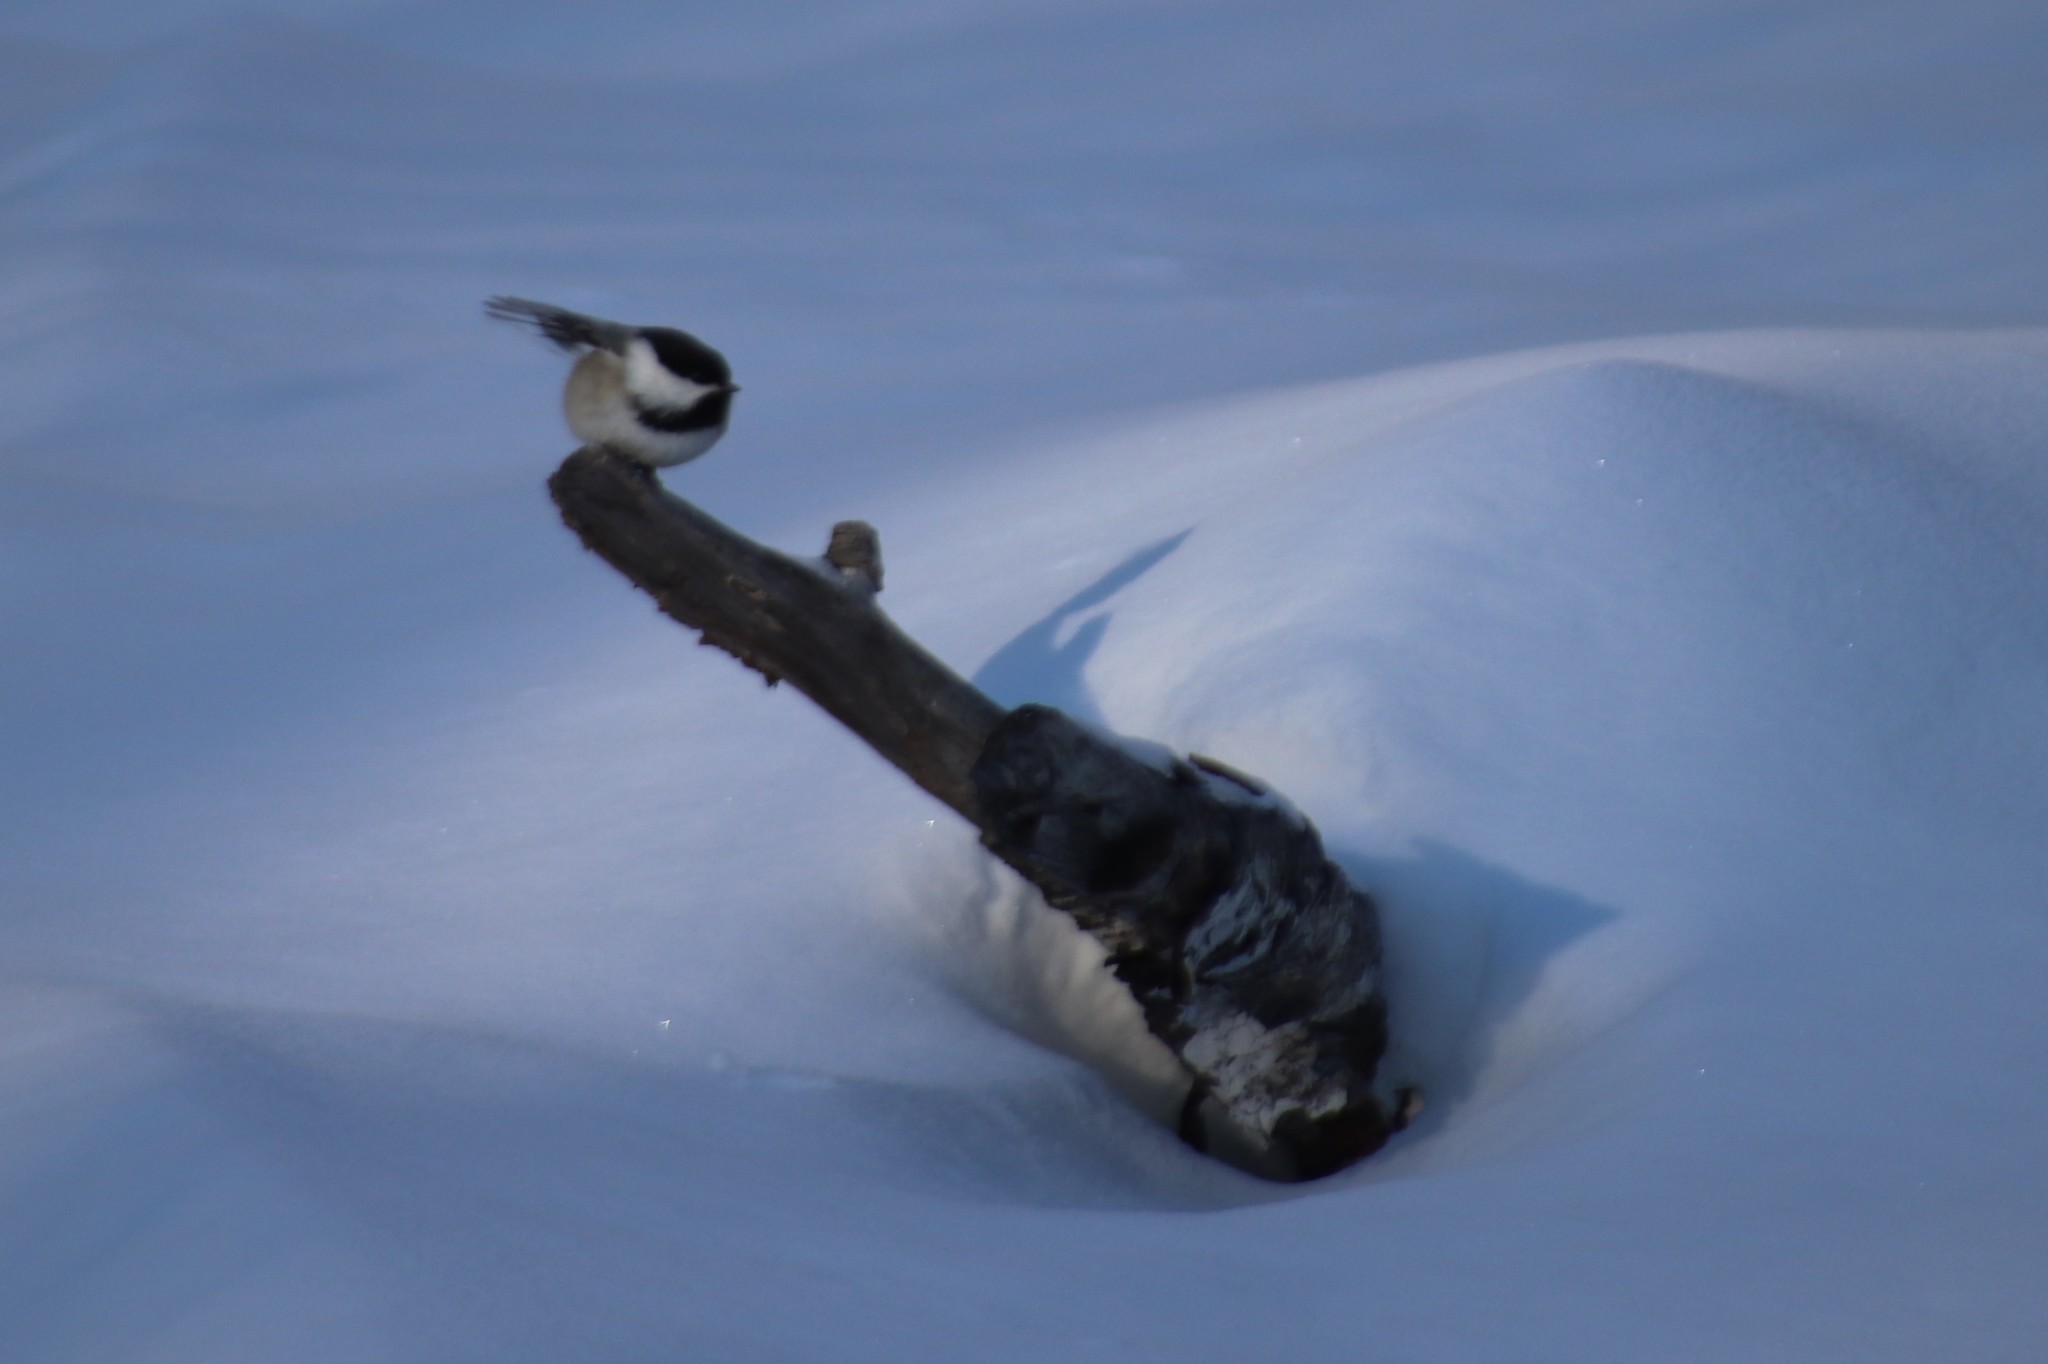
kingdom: Animalia
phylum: Chordata
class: Aves
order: Passeriformes
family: Paridae
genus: Poecile
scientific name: Poecile atricapillus
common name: Black-capped chickadee
